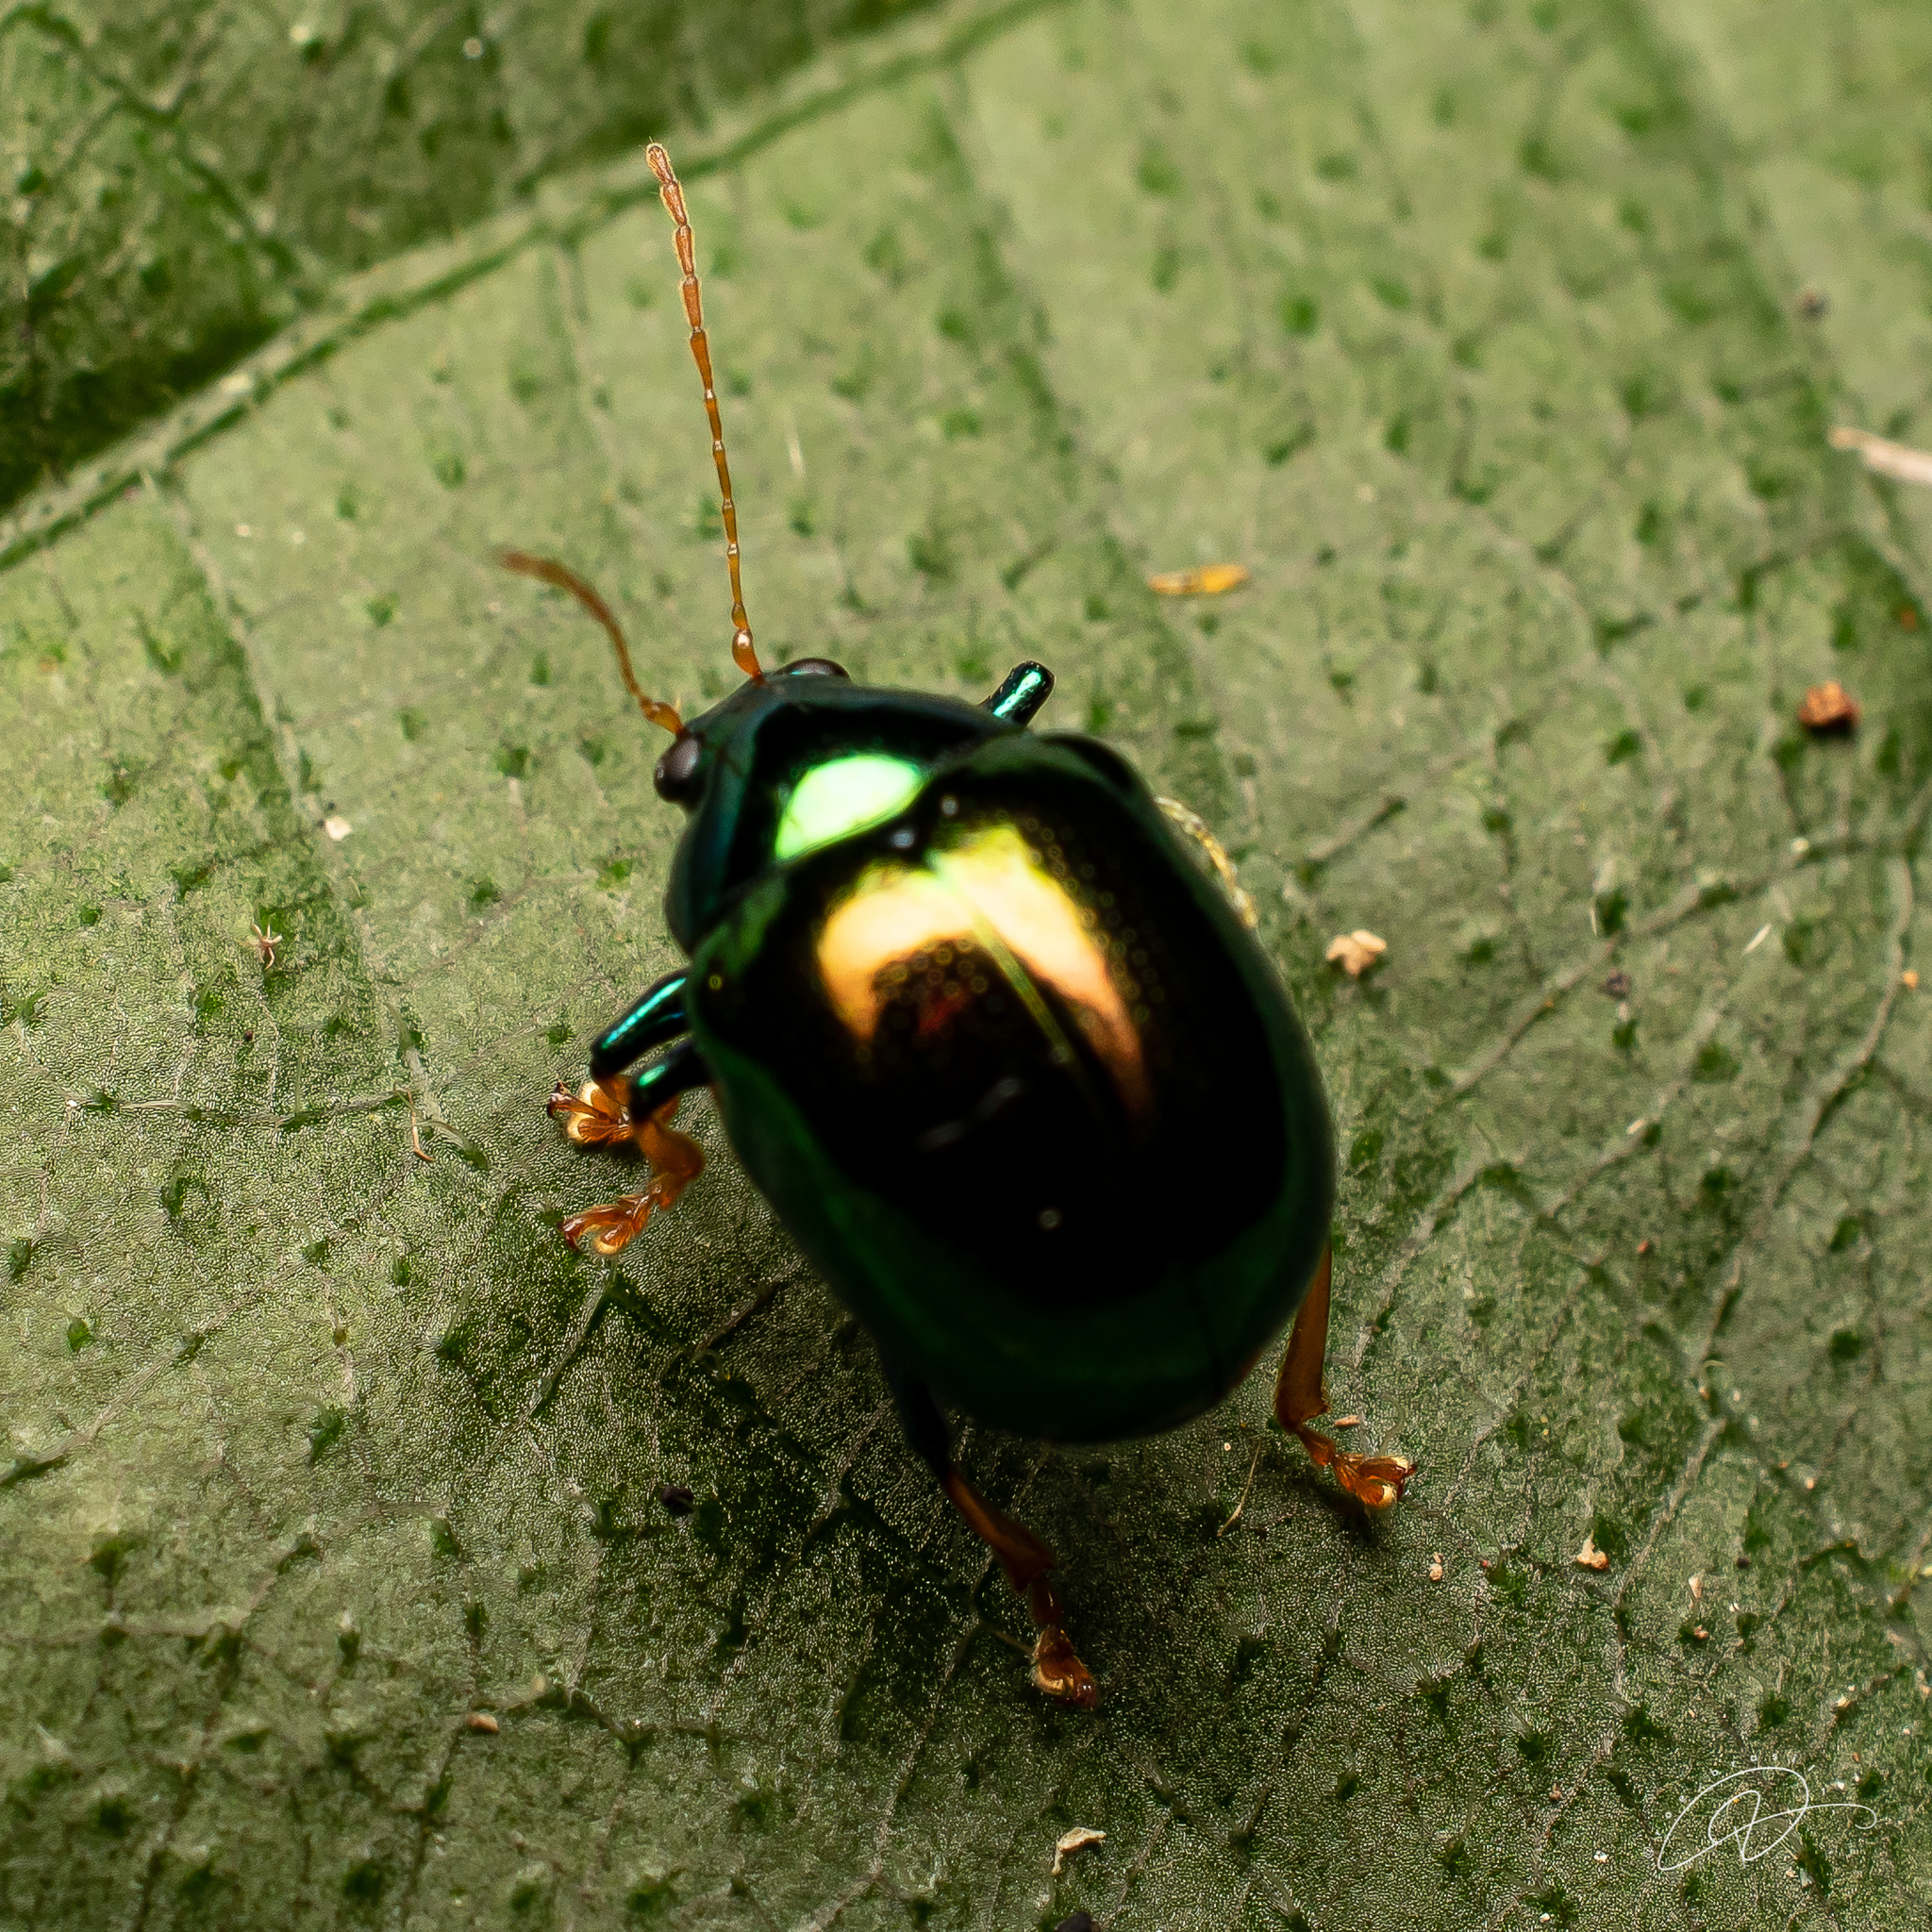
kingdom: Animalia
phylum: Arthropoda
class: Insecta
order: Coleoptera
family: Chrysomelidae
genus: Colaspoides
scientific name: Colaspoides
